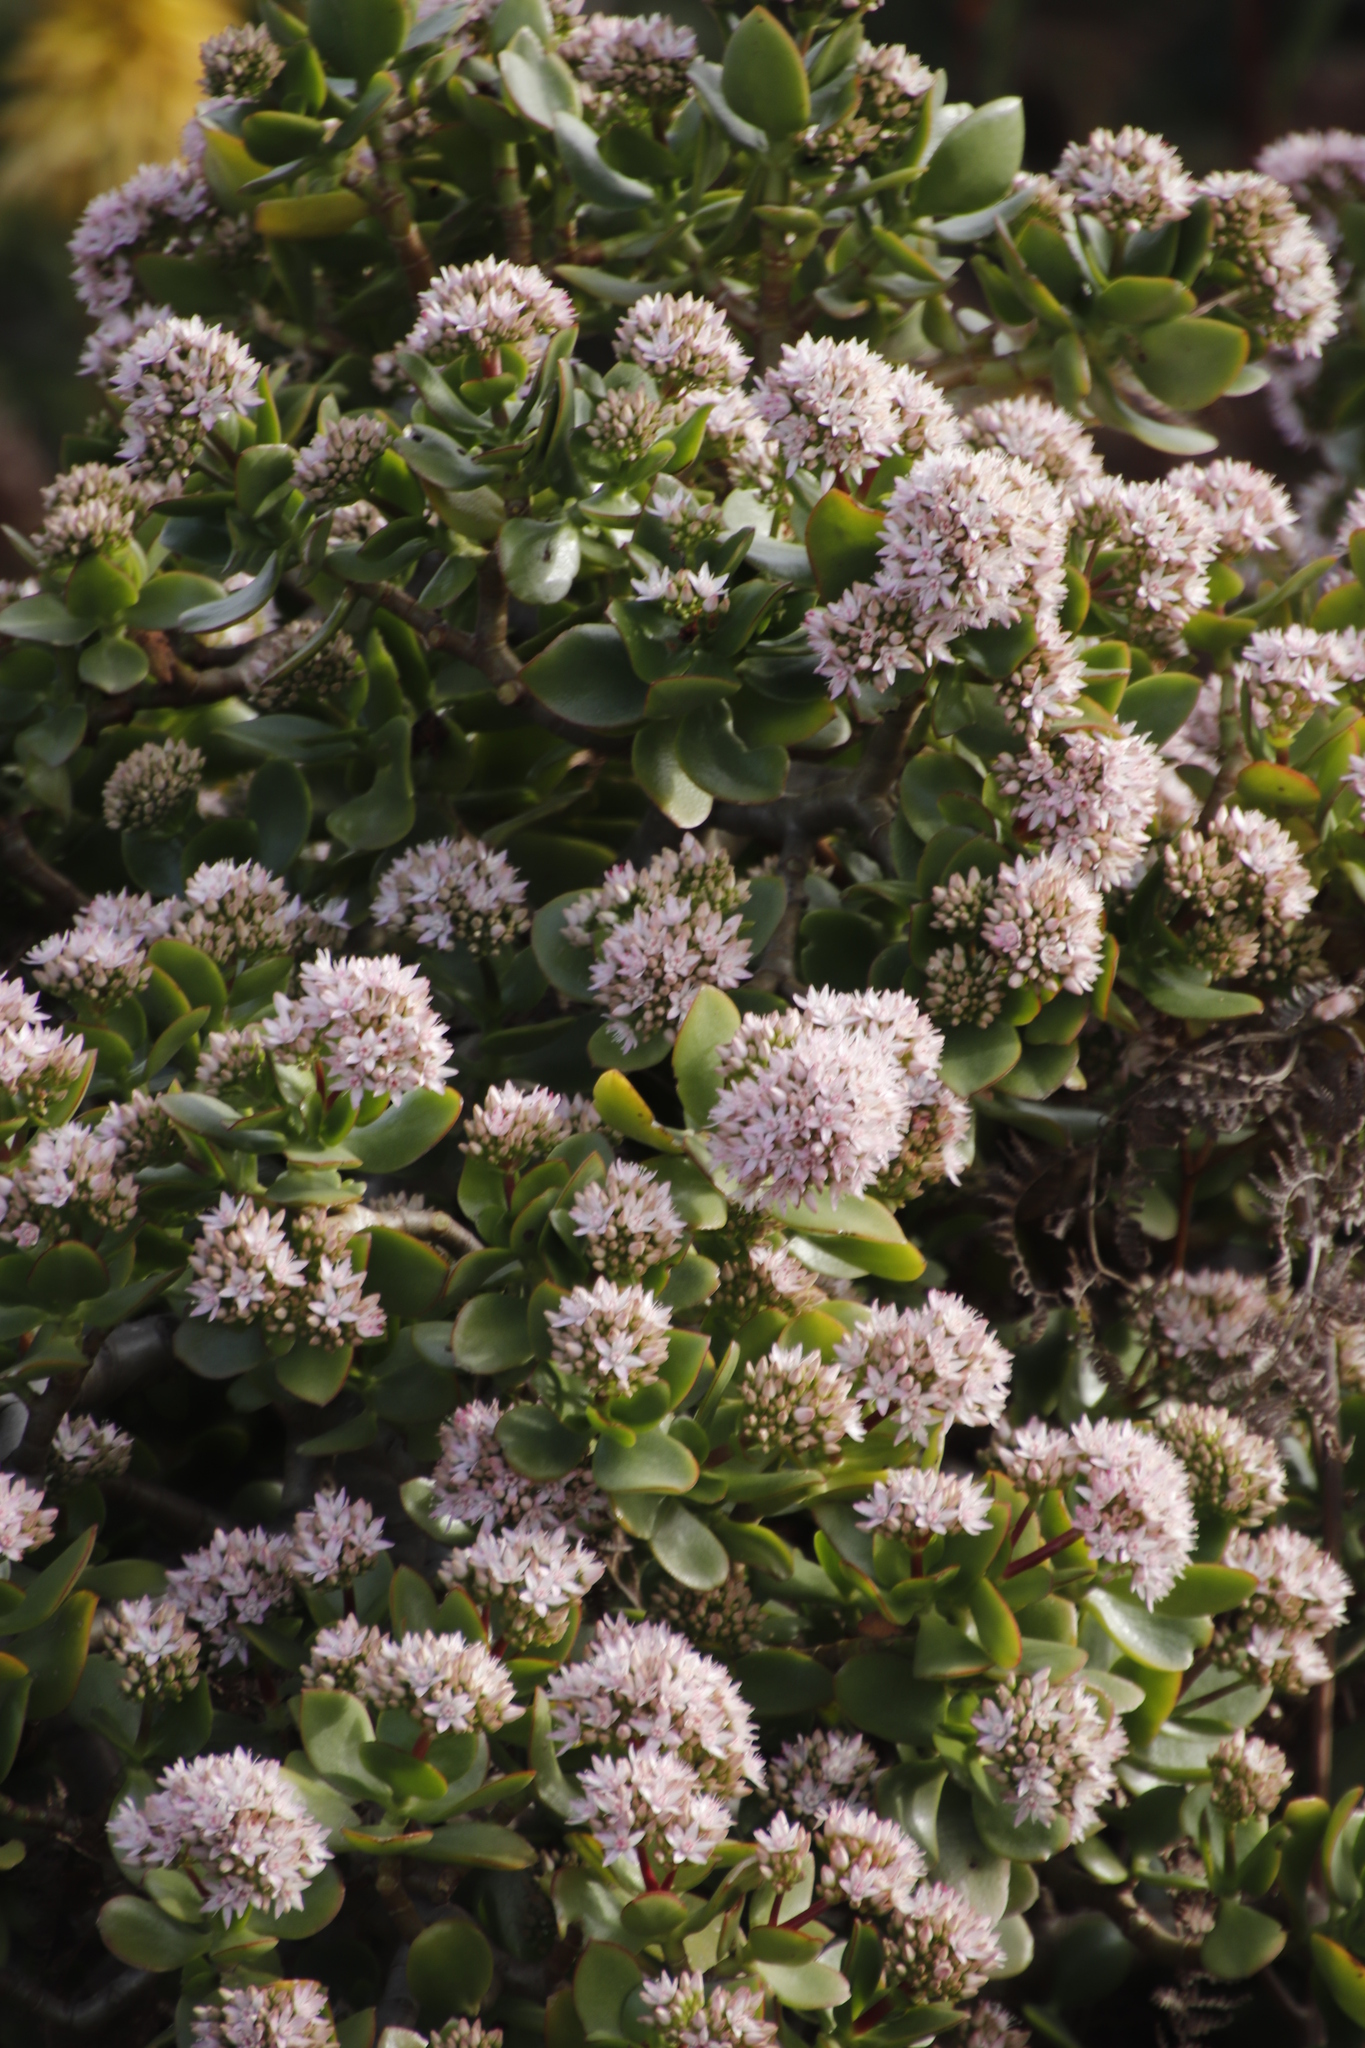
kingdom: Plantae
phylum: Tracheophyta
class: Magnoliopsida
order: Saxifragales
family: Crassulaceae
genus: Crassula
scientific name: Crassula ovata
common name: Jade plant
